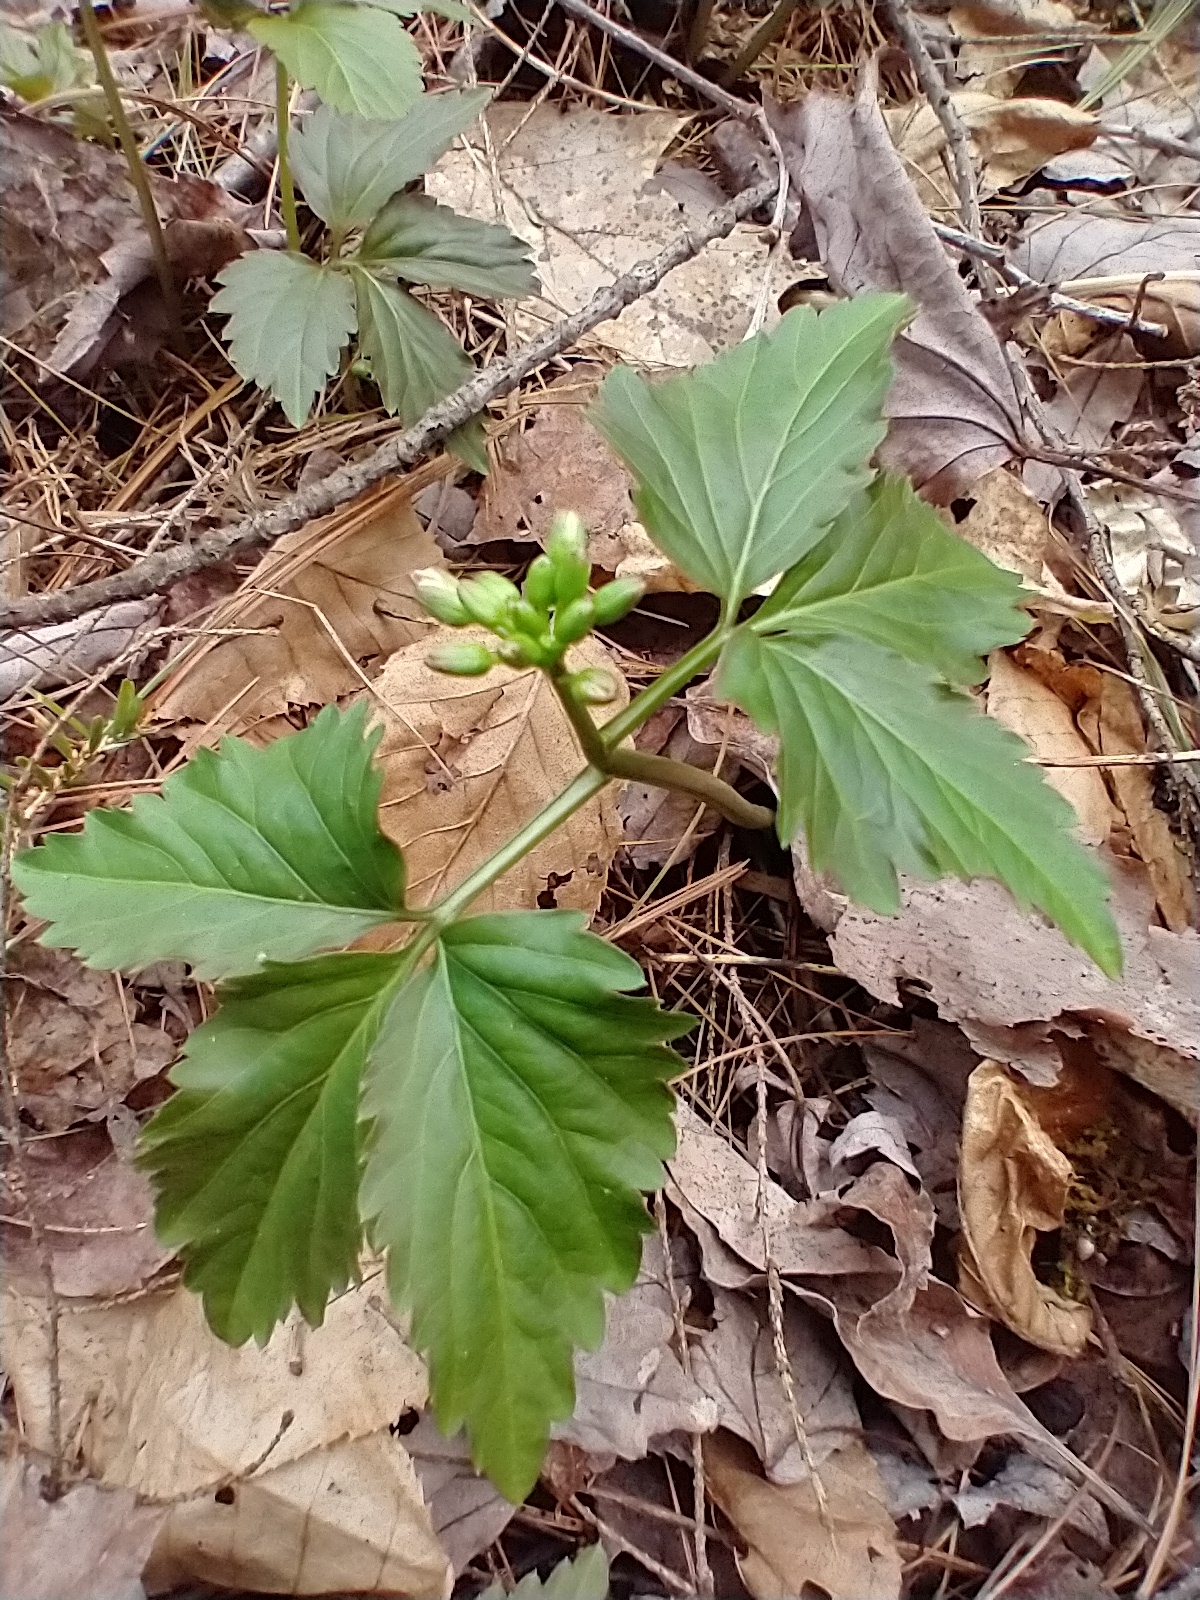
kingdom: Plantae
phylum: Tracheophyta
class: Magnoliopsida
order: Brassicales
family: Brassicaceae
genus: Cardamine
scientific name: Cardamine diphylla
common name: Broad-leaved toothwort
